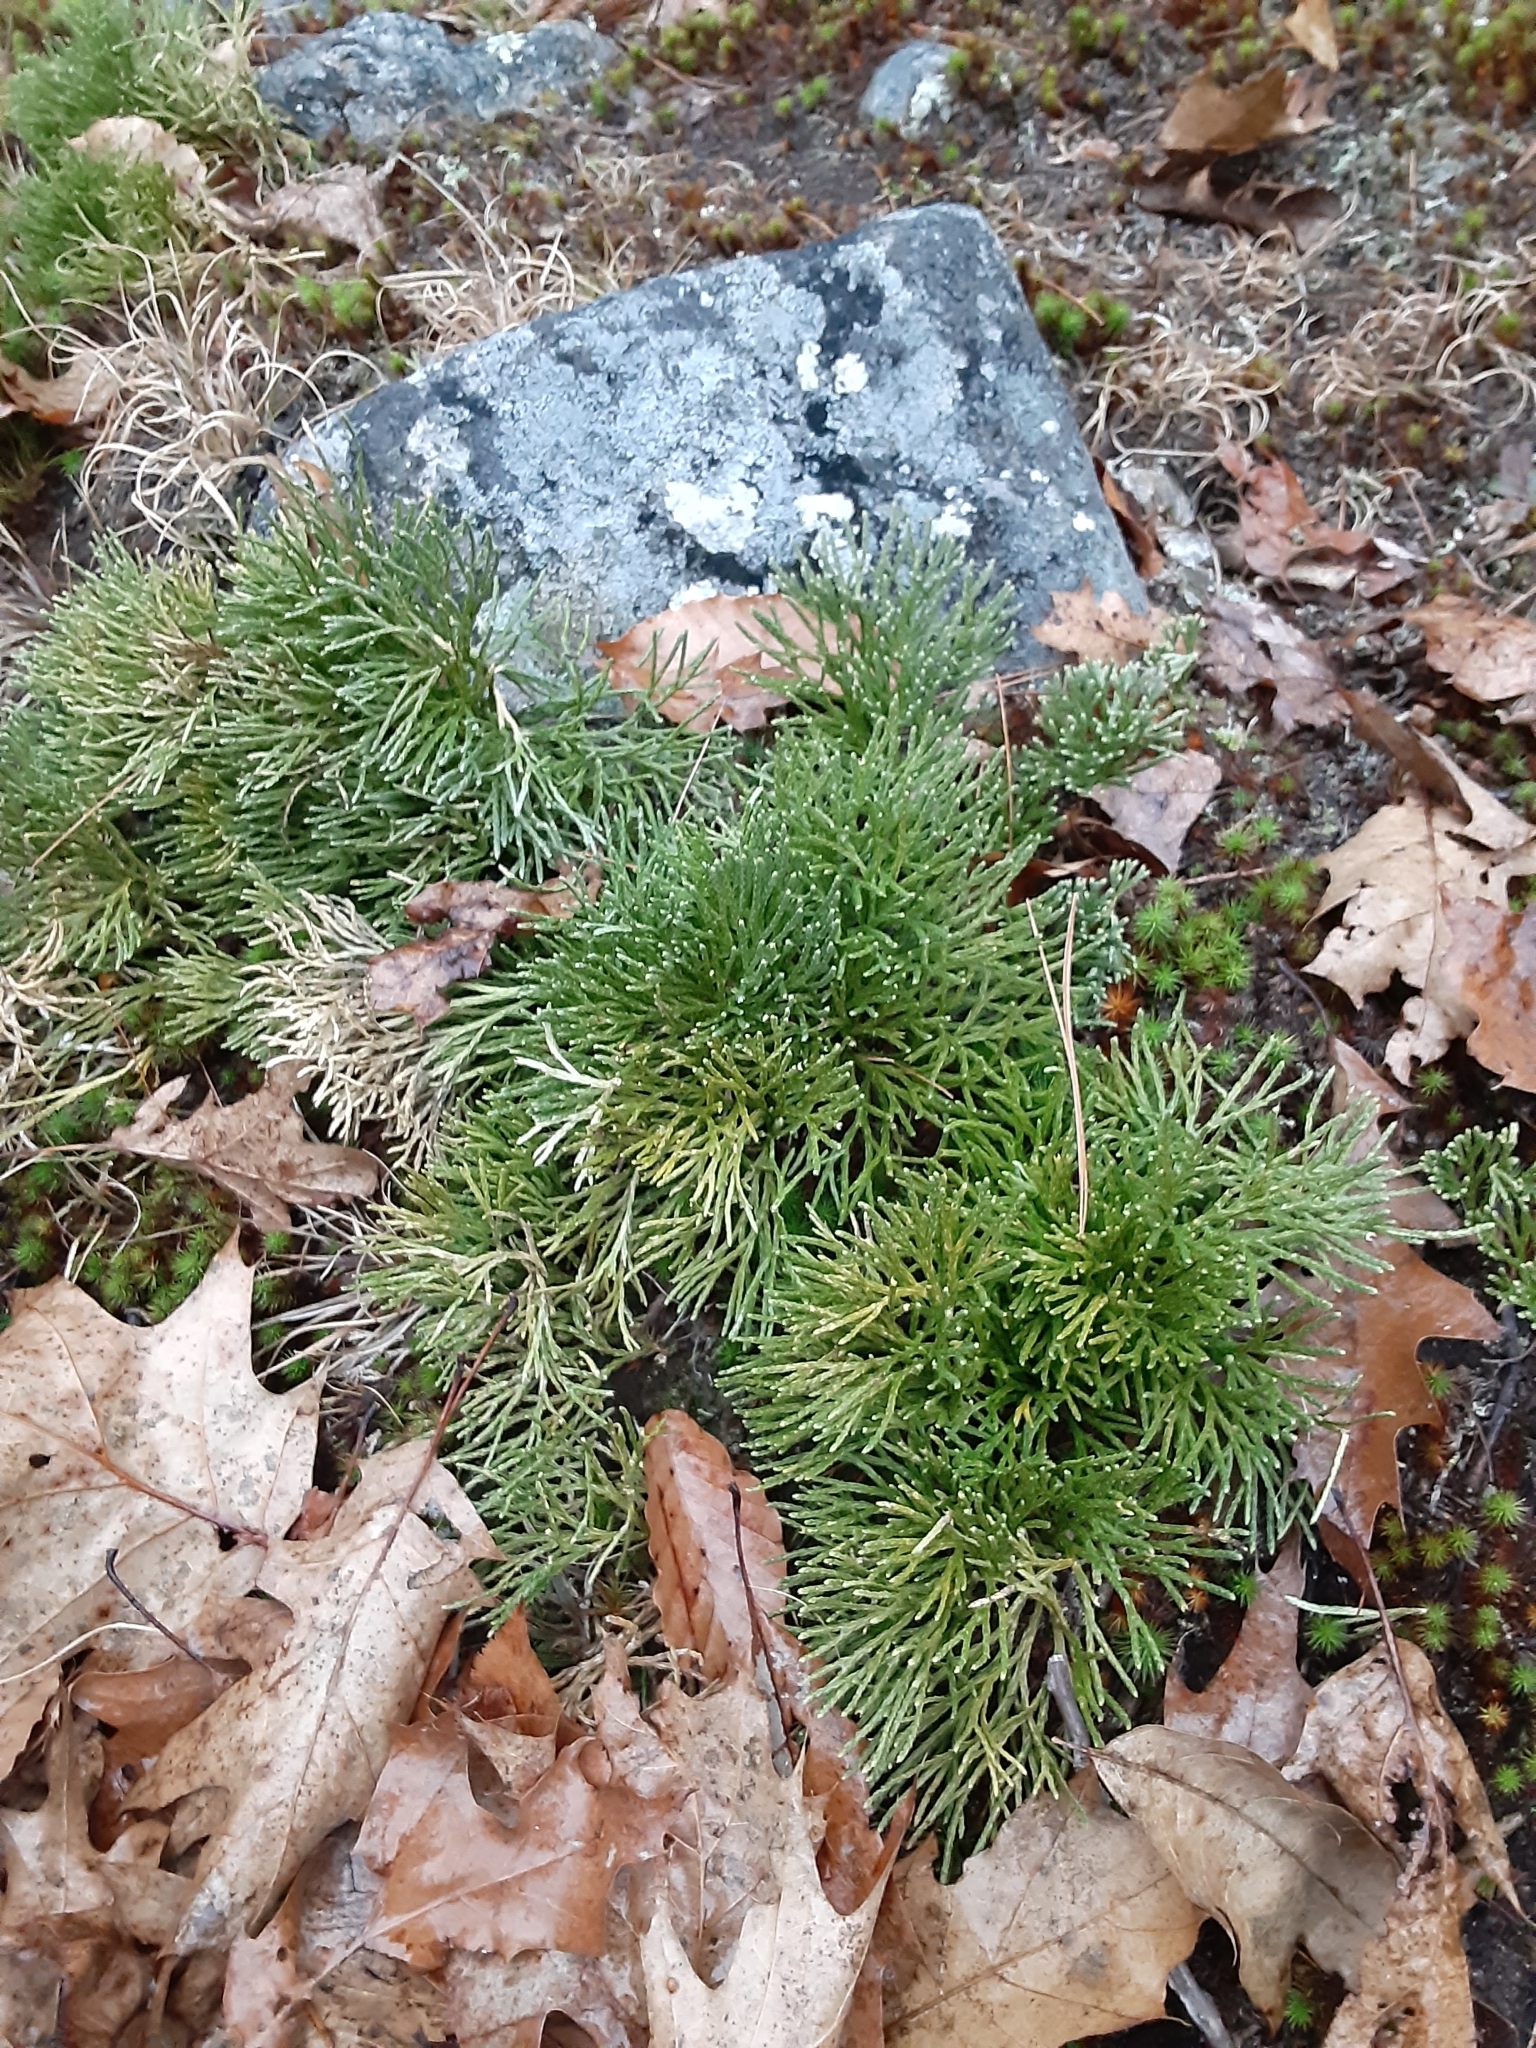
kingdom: Plantae
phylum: Tracheophyta
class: Lycopodiopsida
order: Lycopodiales
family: Lycopodiaceae
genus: Diphasiastrum
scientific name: Diphasiastrum tristachyum
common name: Blue ground-cedar
